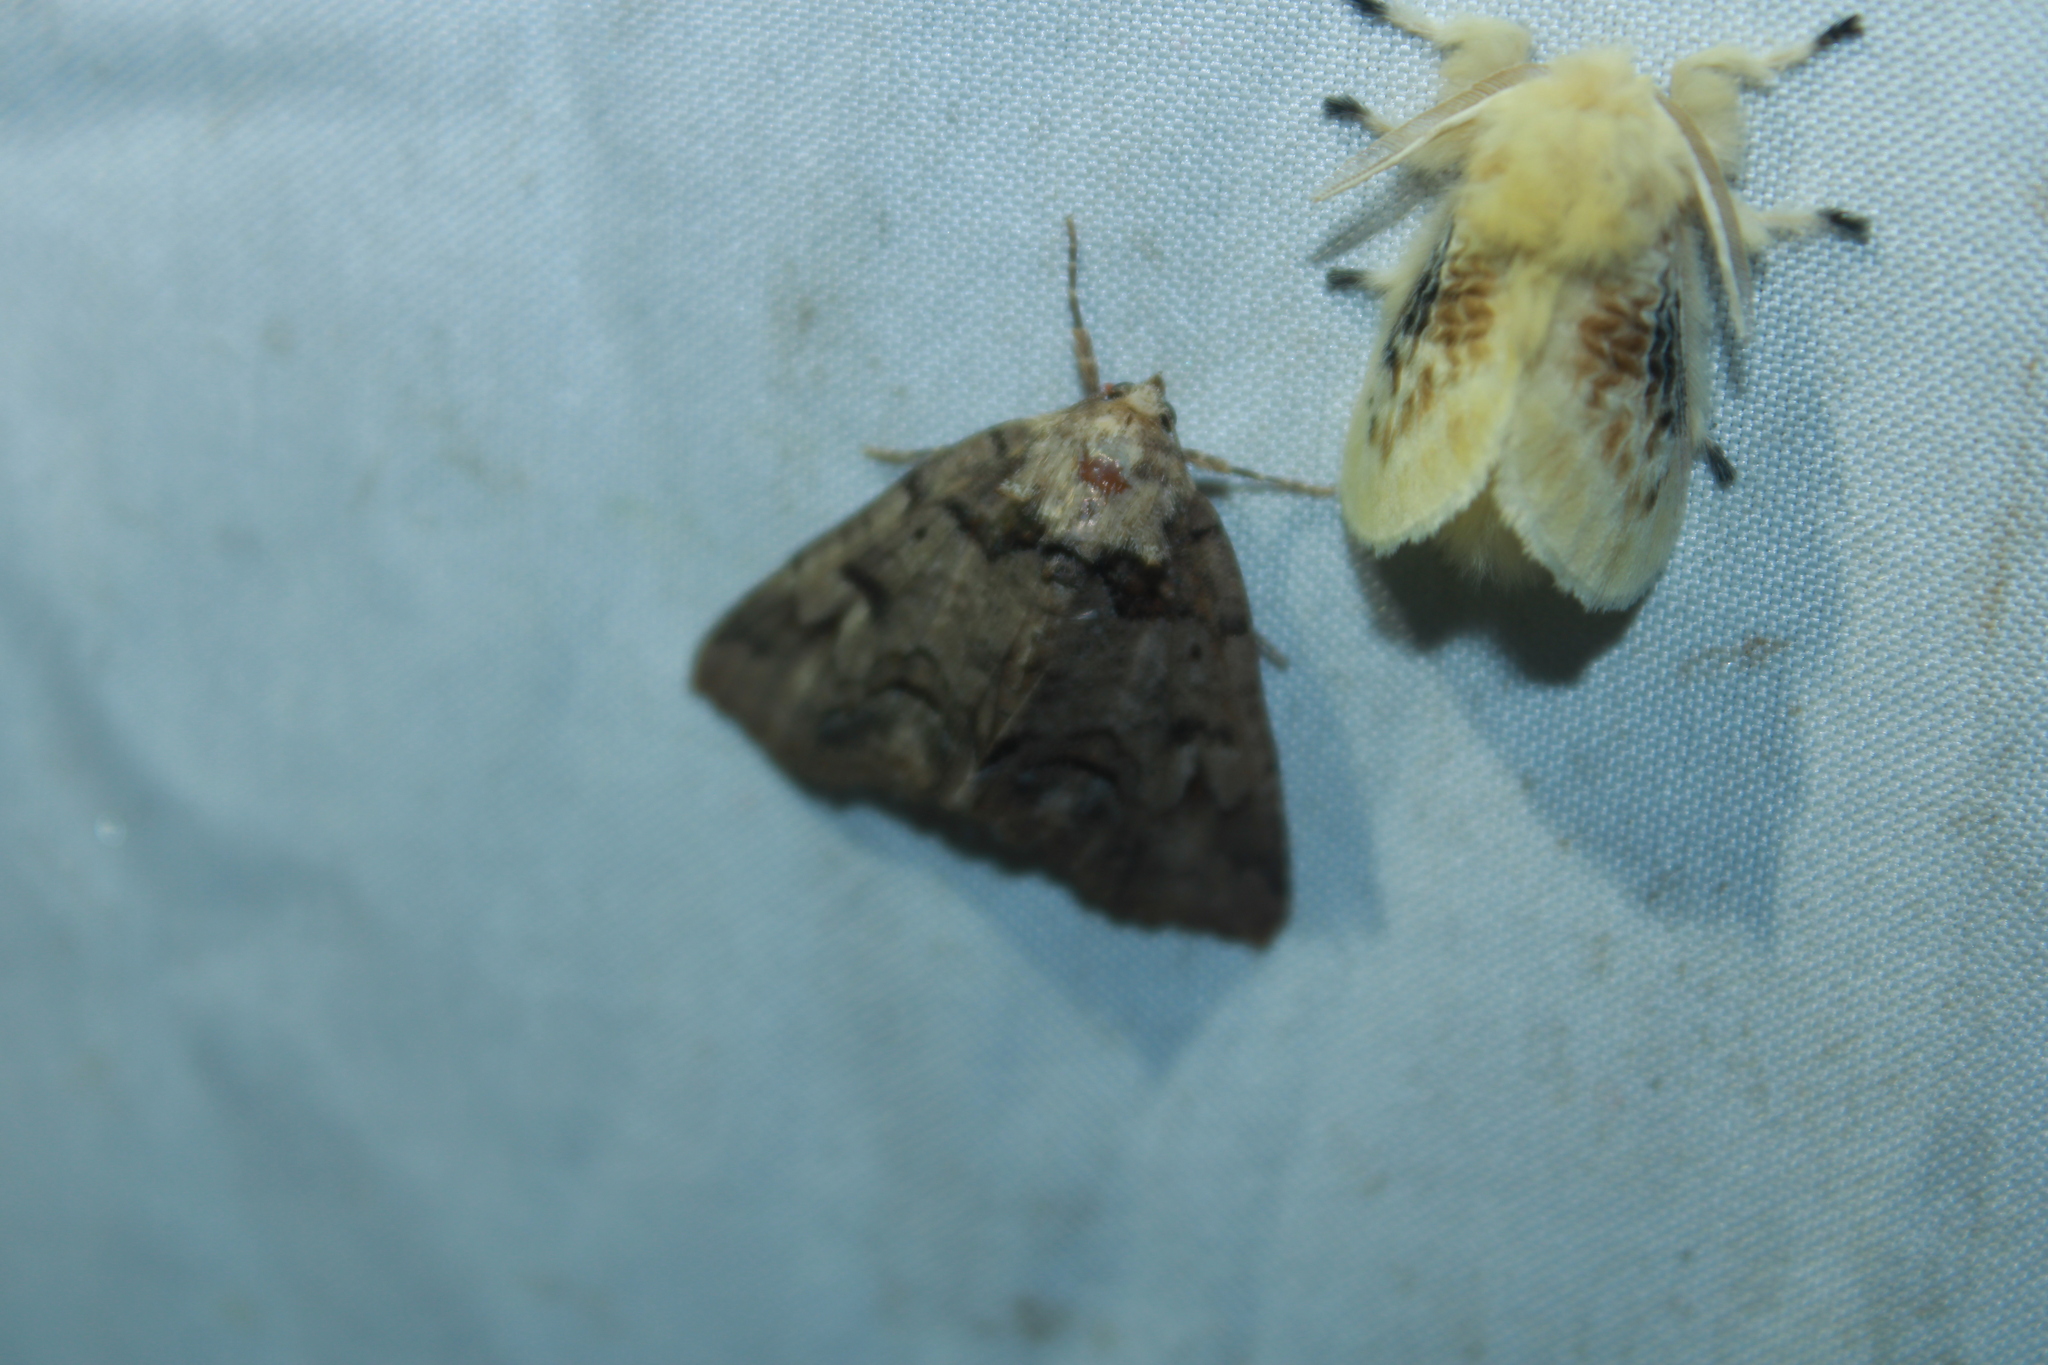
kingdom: Animalia
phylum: Arthropoda
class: Insecta
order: Lepidoptera
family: Erebidae
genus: Zale
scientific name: Zale helata
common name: Brown-spotted zale moth
